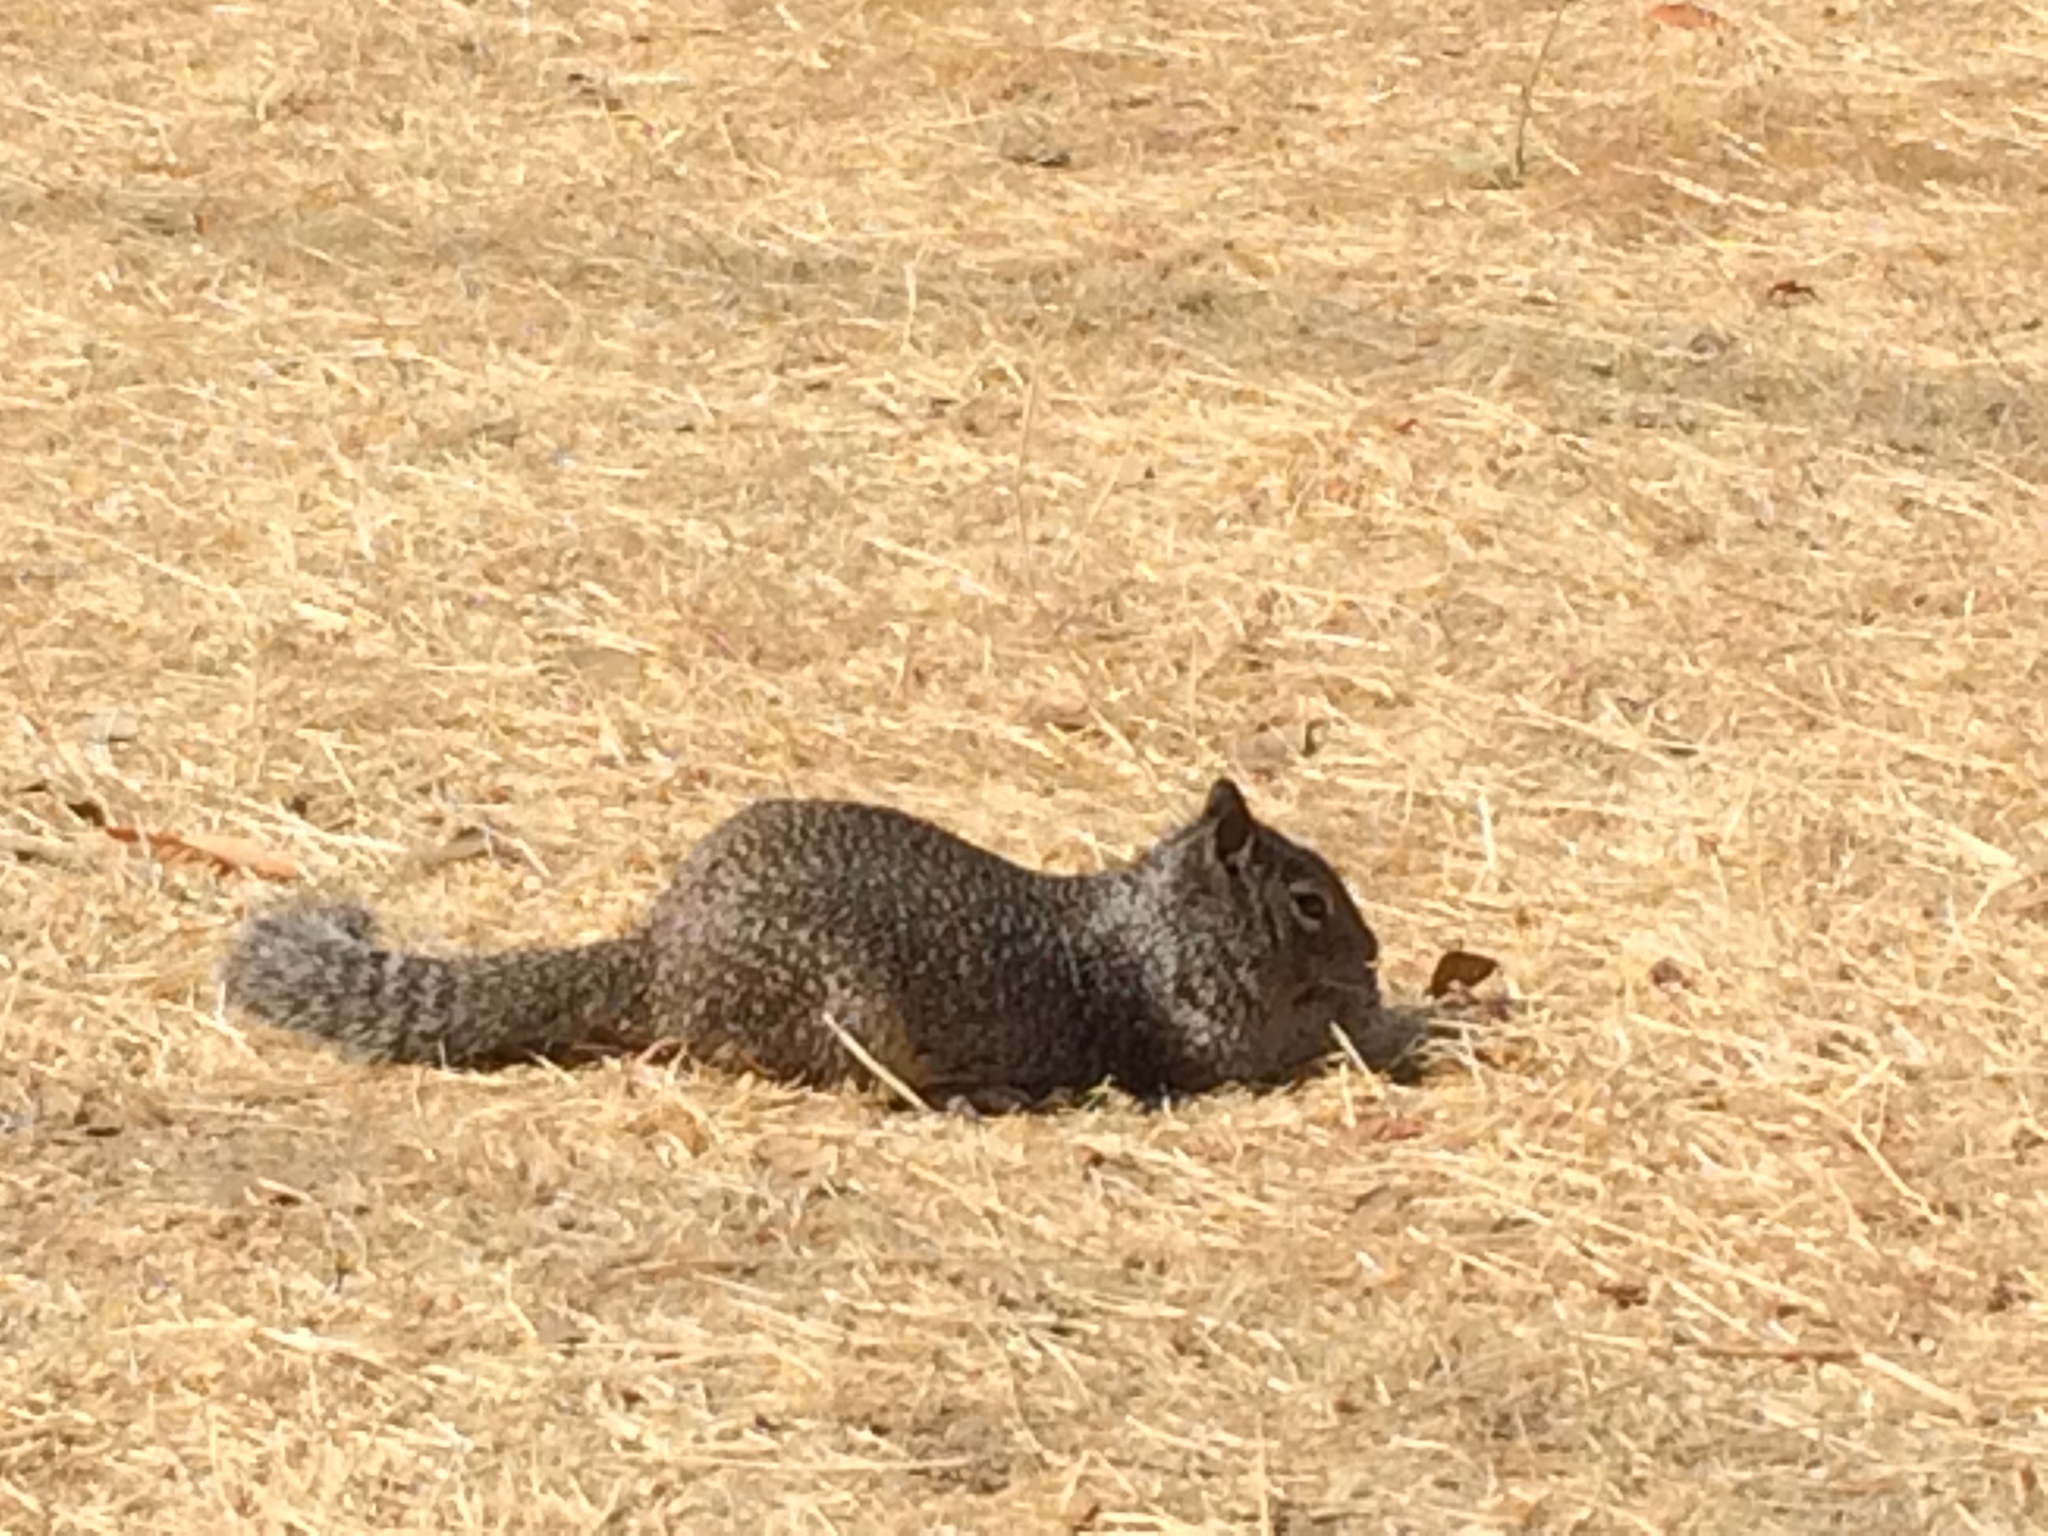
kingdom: Animalia
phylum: Chordata
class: Mammalia
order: Rodentia
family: Sciuridae
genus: Otospermophilus
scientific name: Otospermophilus beecheyi
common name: California ground squirrel
